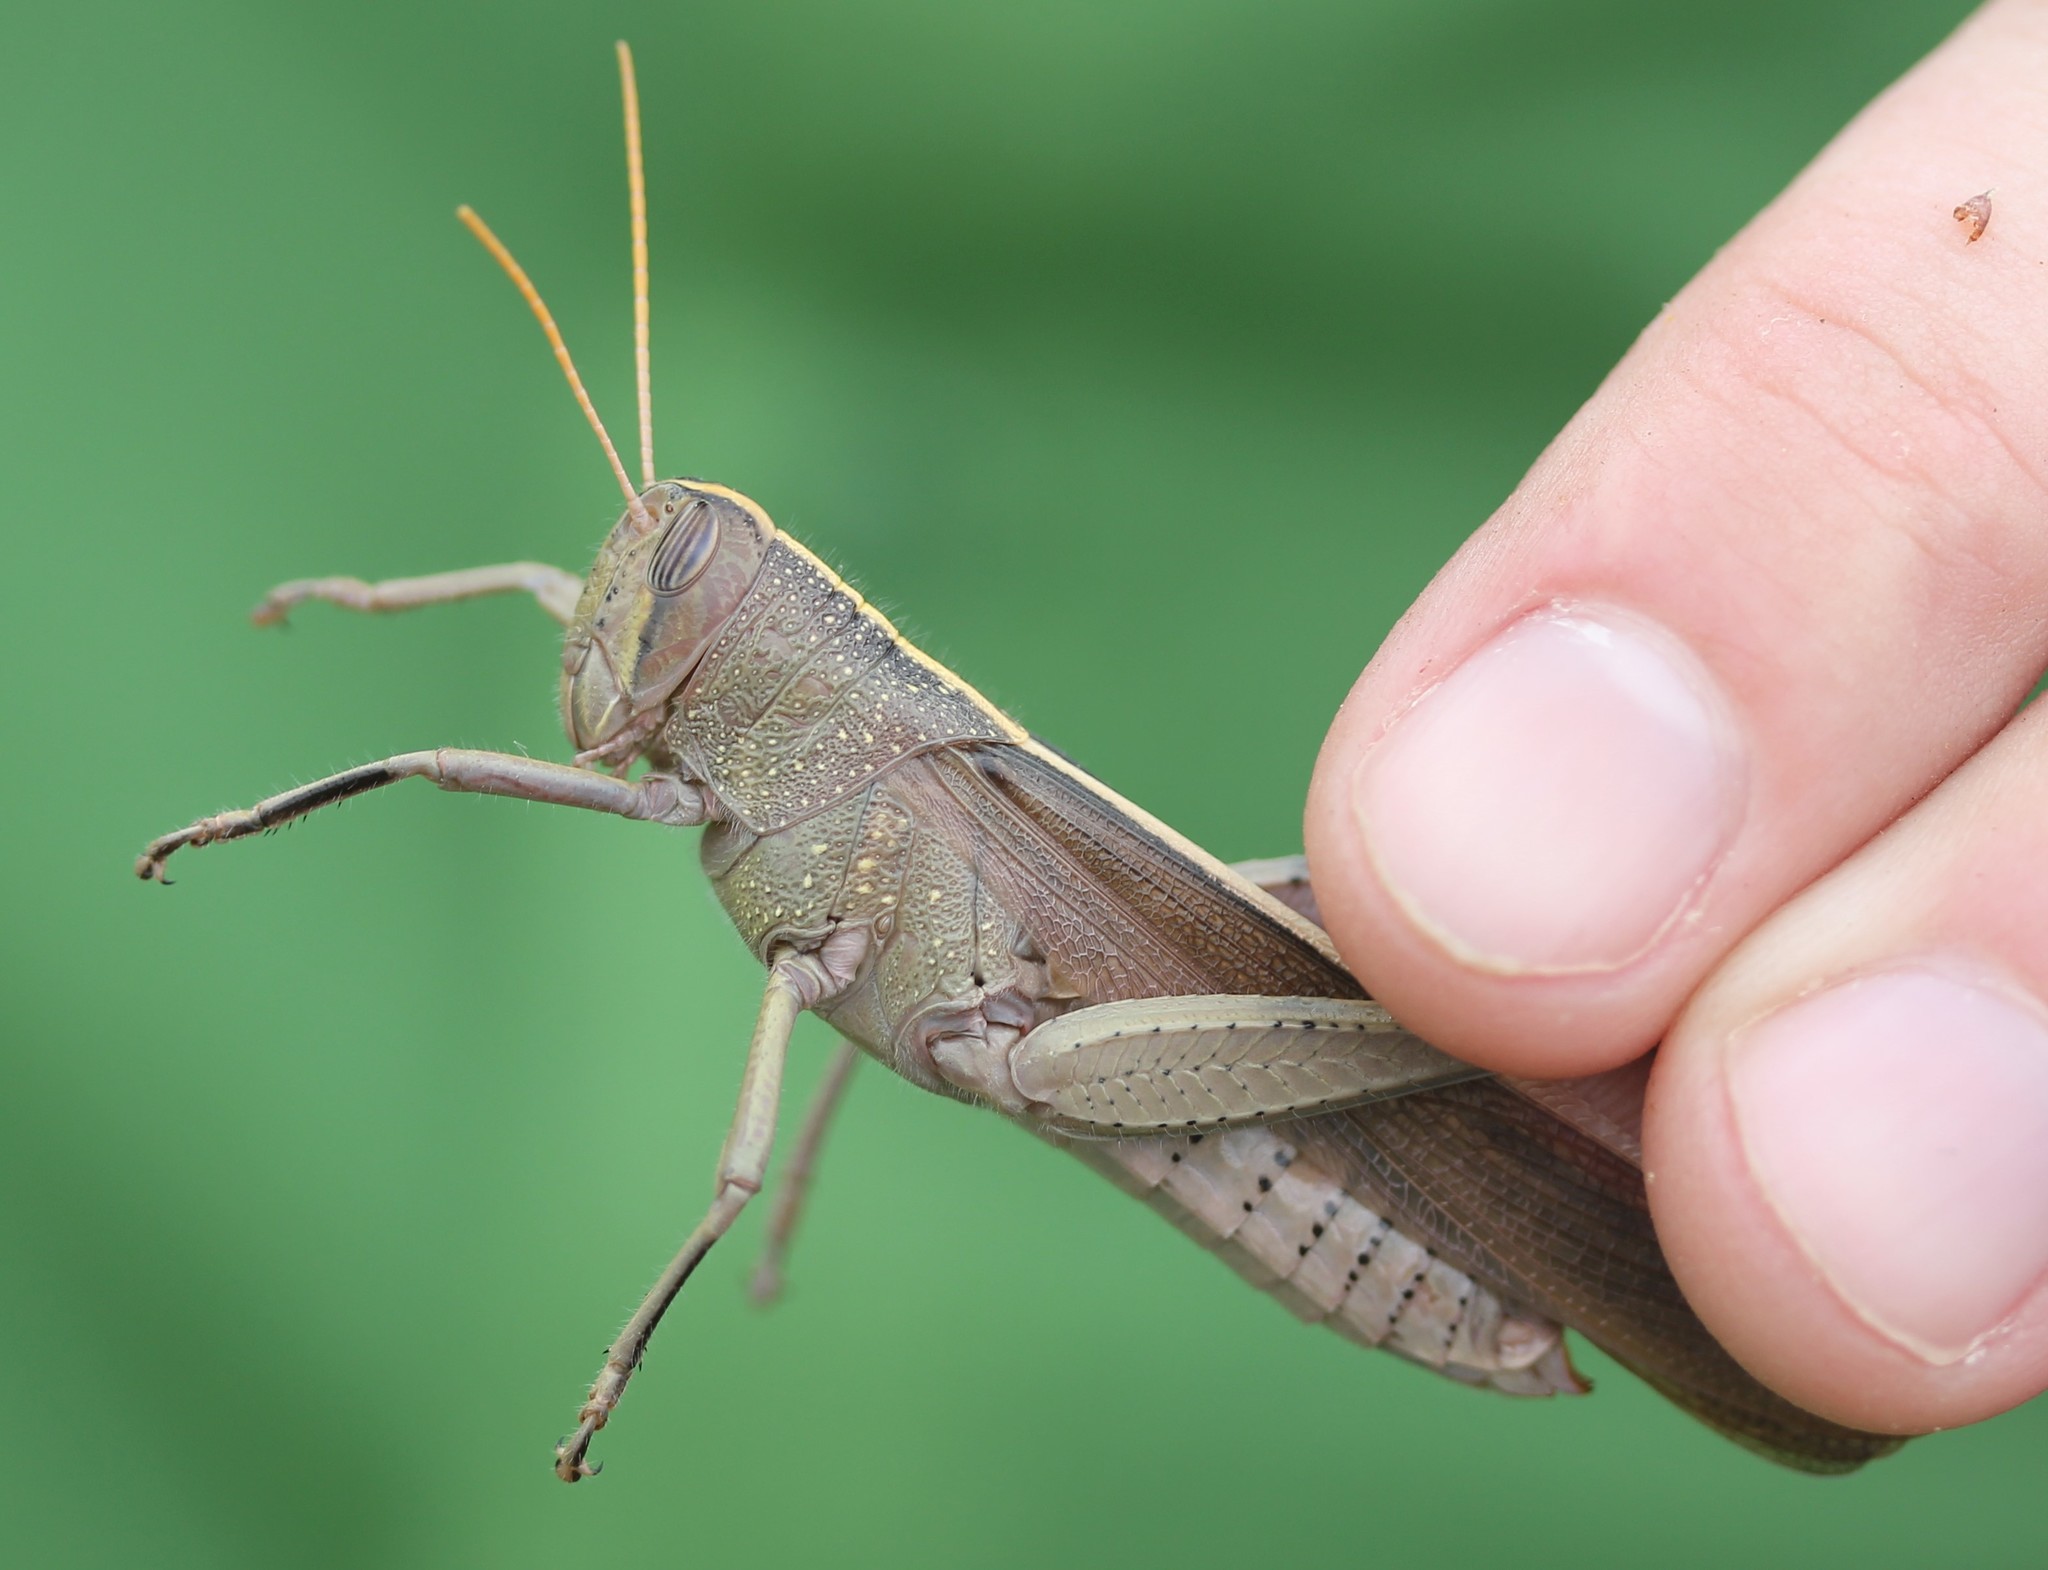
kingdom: Animalia
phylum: Arthropoda
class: Insecta
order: Orthoptera
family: Acrididae
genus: Schistocerca
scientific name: Schistocerca lineata
